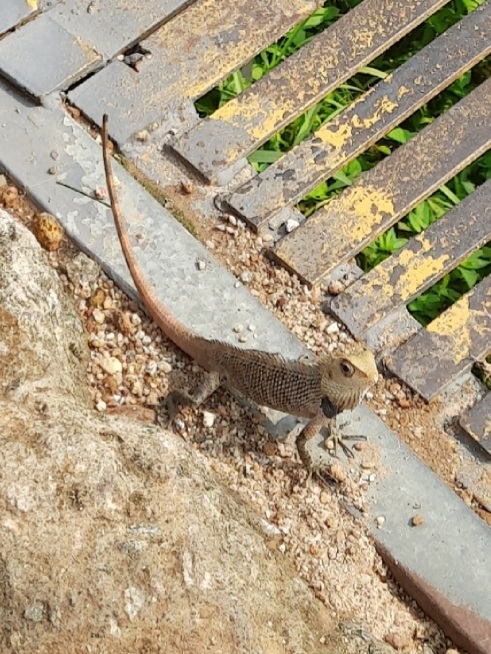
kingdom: Animalia
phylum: Chordata
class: Squamata
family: Agamidae
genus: Calotes
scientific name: Calotes versicolor
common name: Oriental garden lizard
